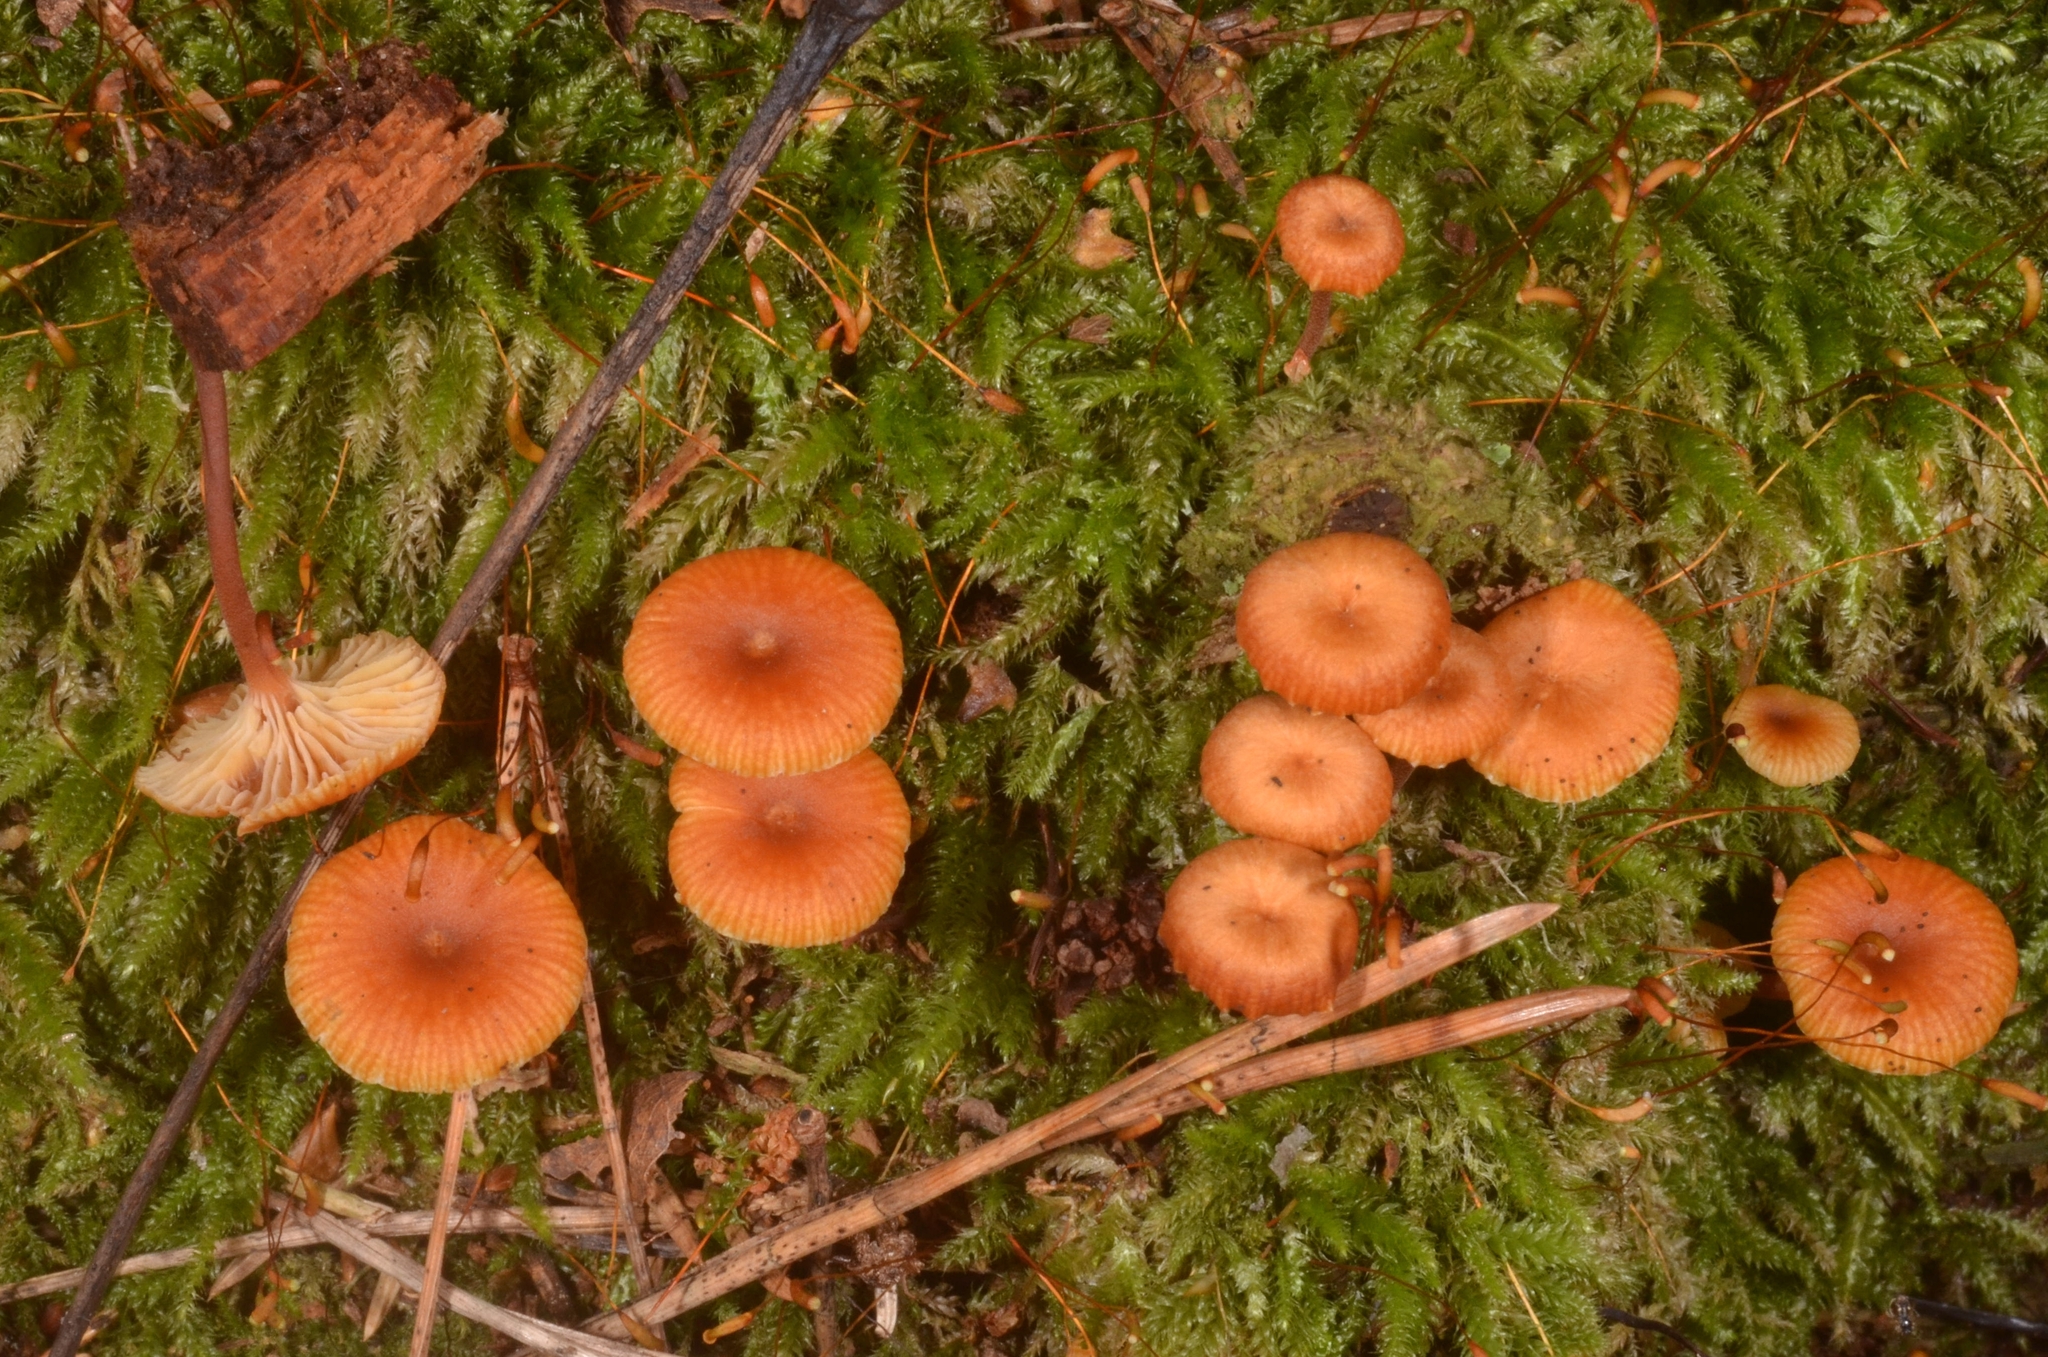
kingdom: Fungi
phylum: Basidiomycota
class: Agaricomycetes
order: Agaricales
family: Mycenaceae
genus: Xeromphalina
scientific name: Xeromphalina campanella
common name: Pinewood gingertail
